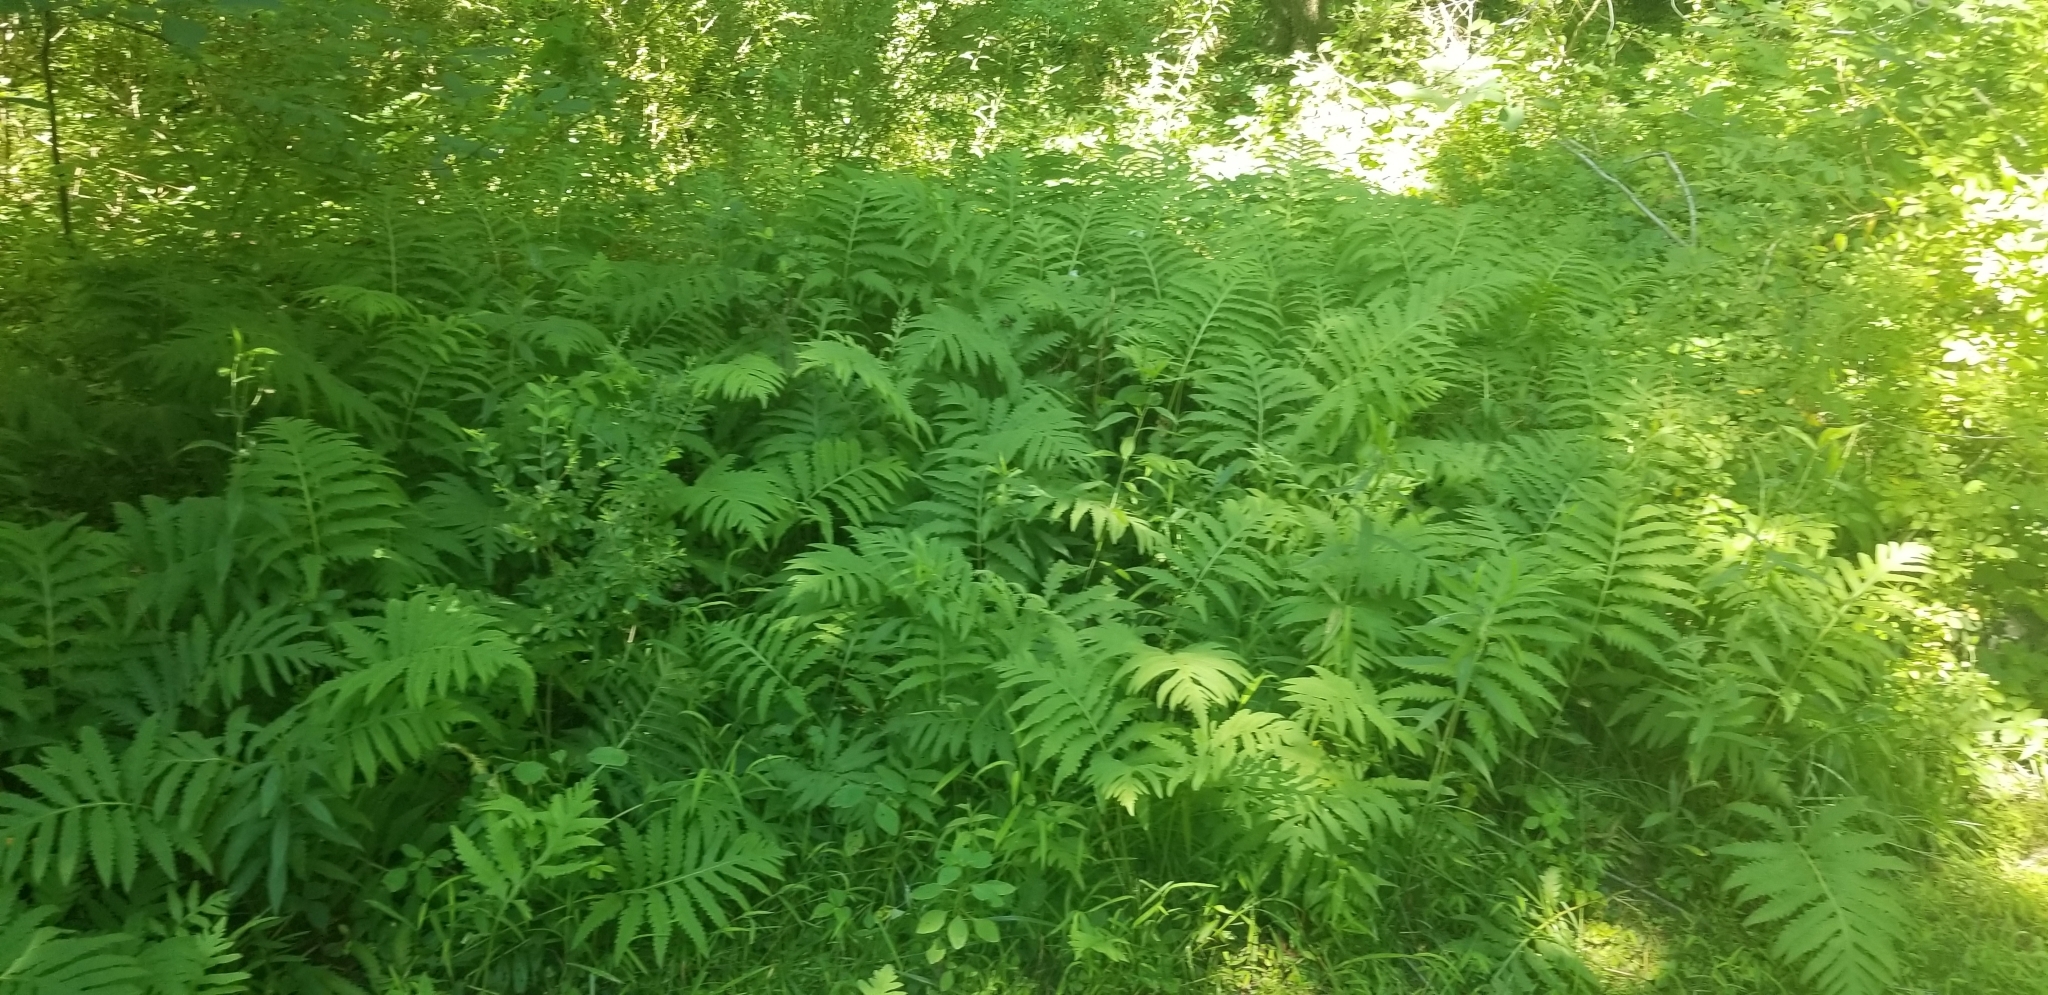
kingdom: Plantae
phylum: Tracheophyta
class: Polypodiopsida
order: Polypodiales
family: Onocleaceae
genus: Onoclea
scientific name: Onoclea sensibilis
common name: Sensitive fern
